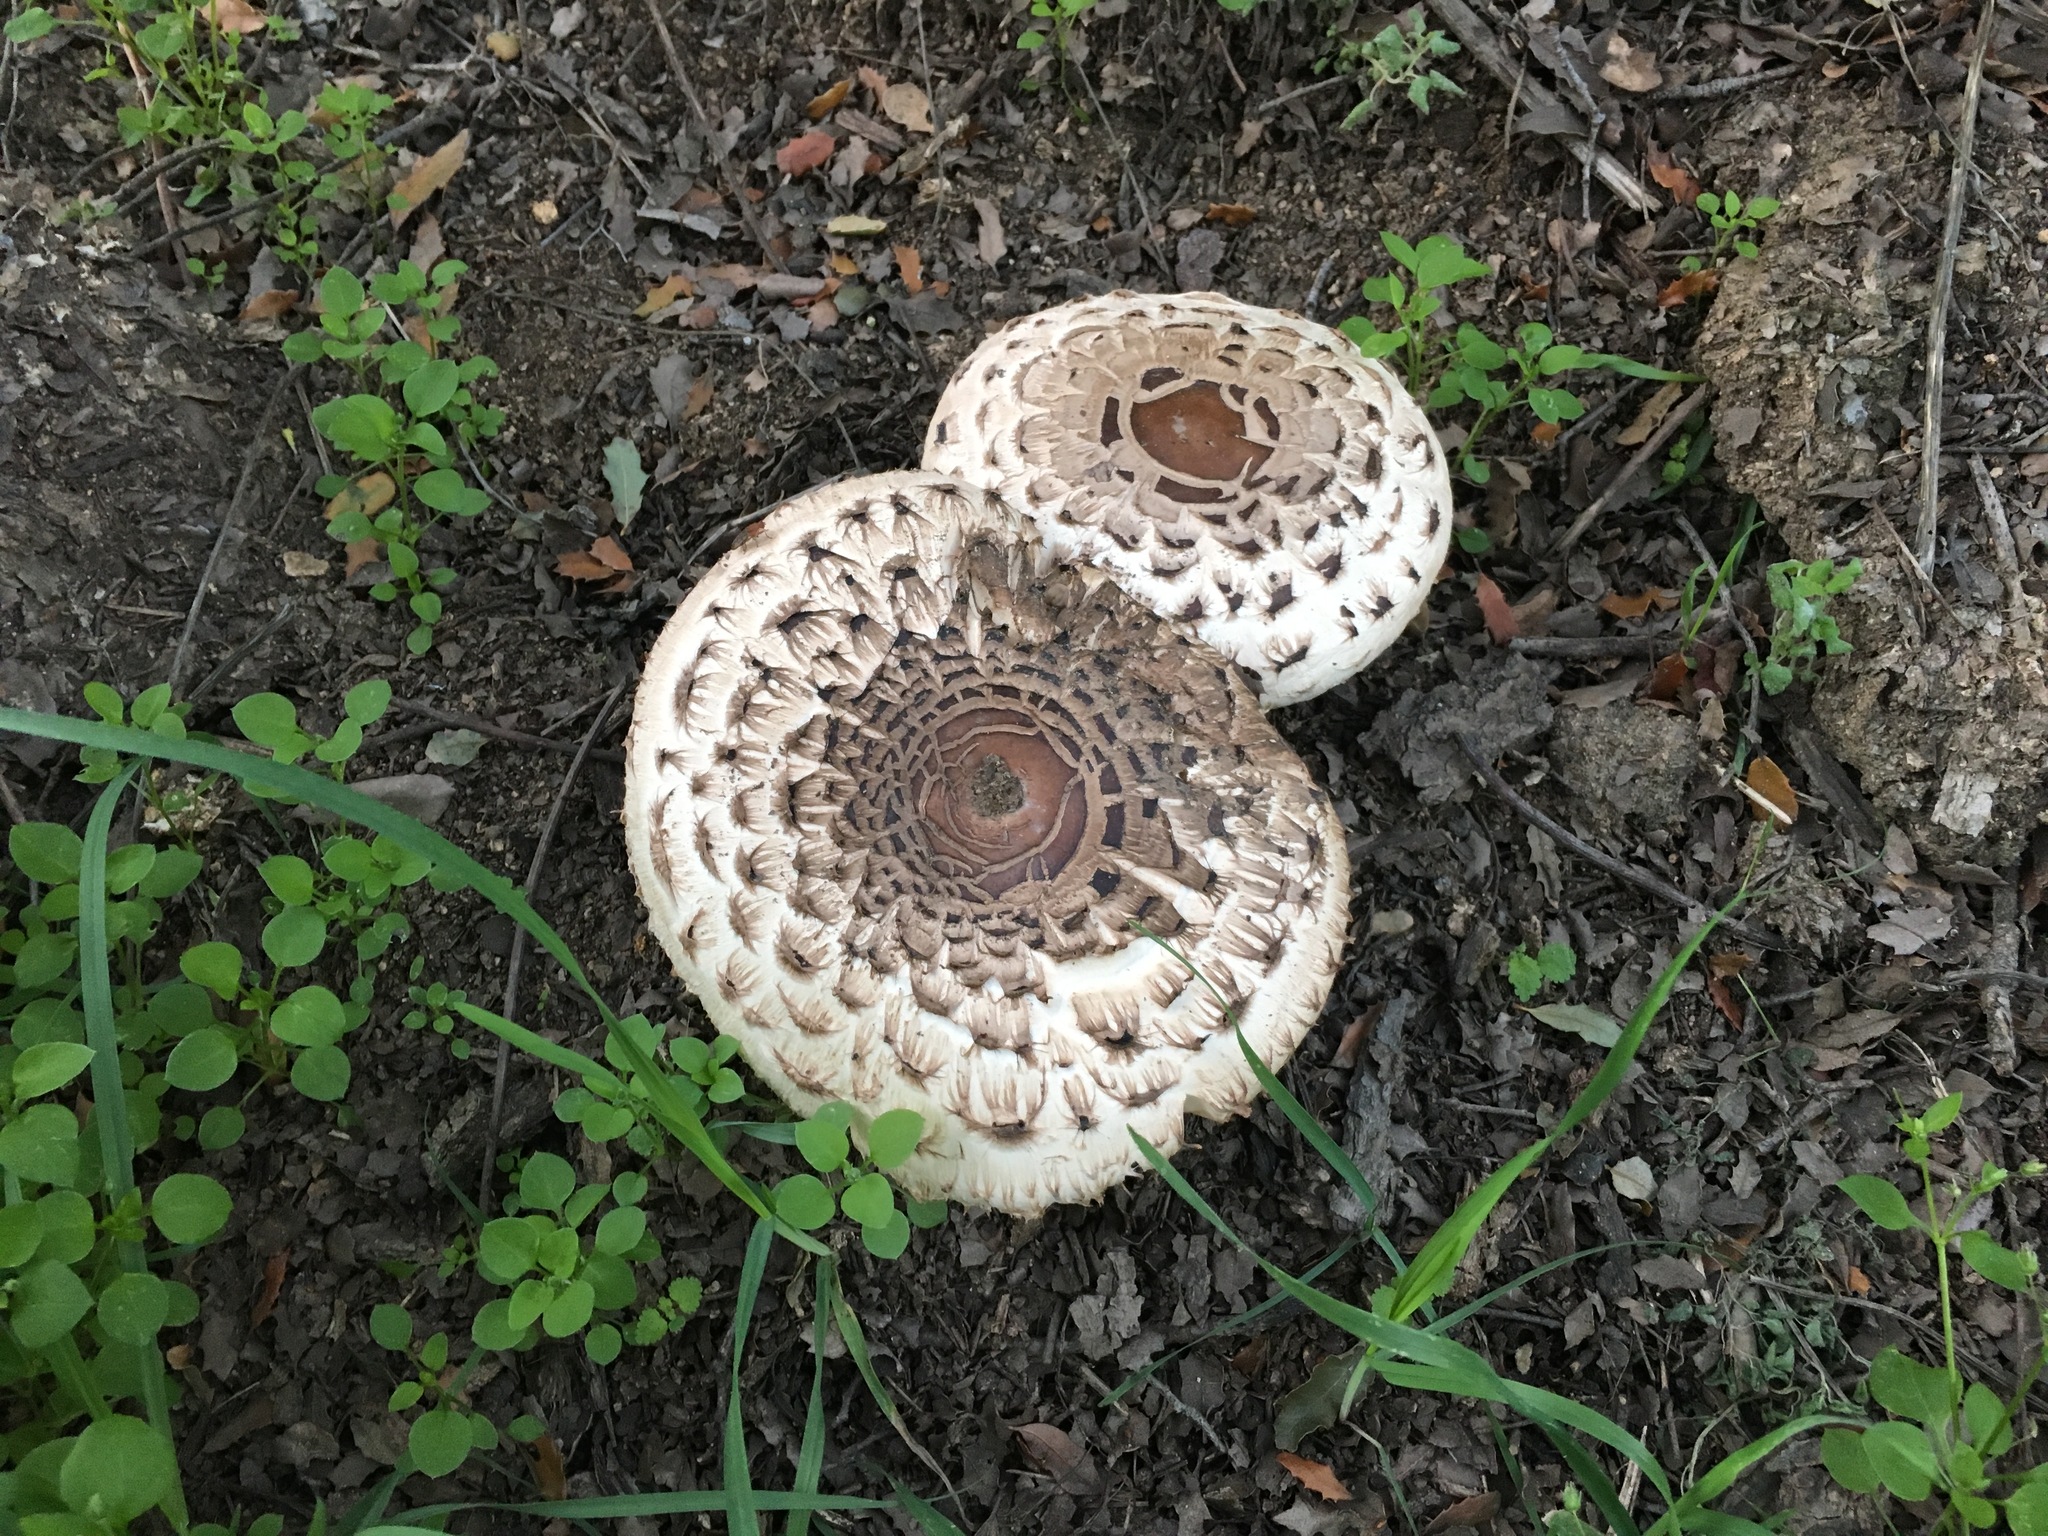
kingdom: Fungi
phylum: Basidiomycota
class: Agaricomycetes
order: Agaricales
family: Agaricaceae
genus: Chlorophyllum
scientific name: Chlorophyllum brunneum
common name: Brown parasol
